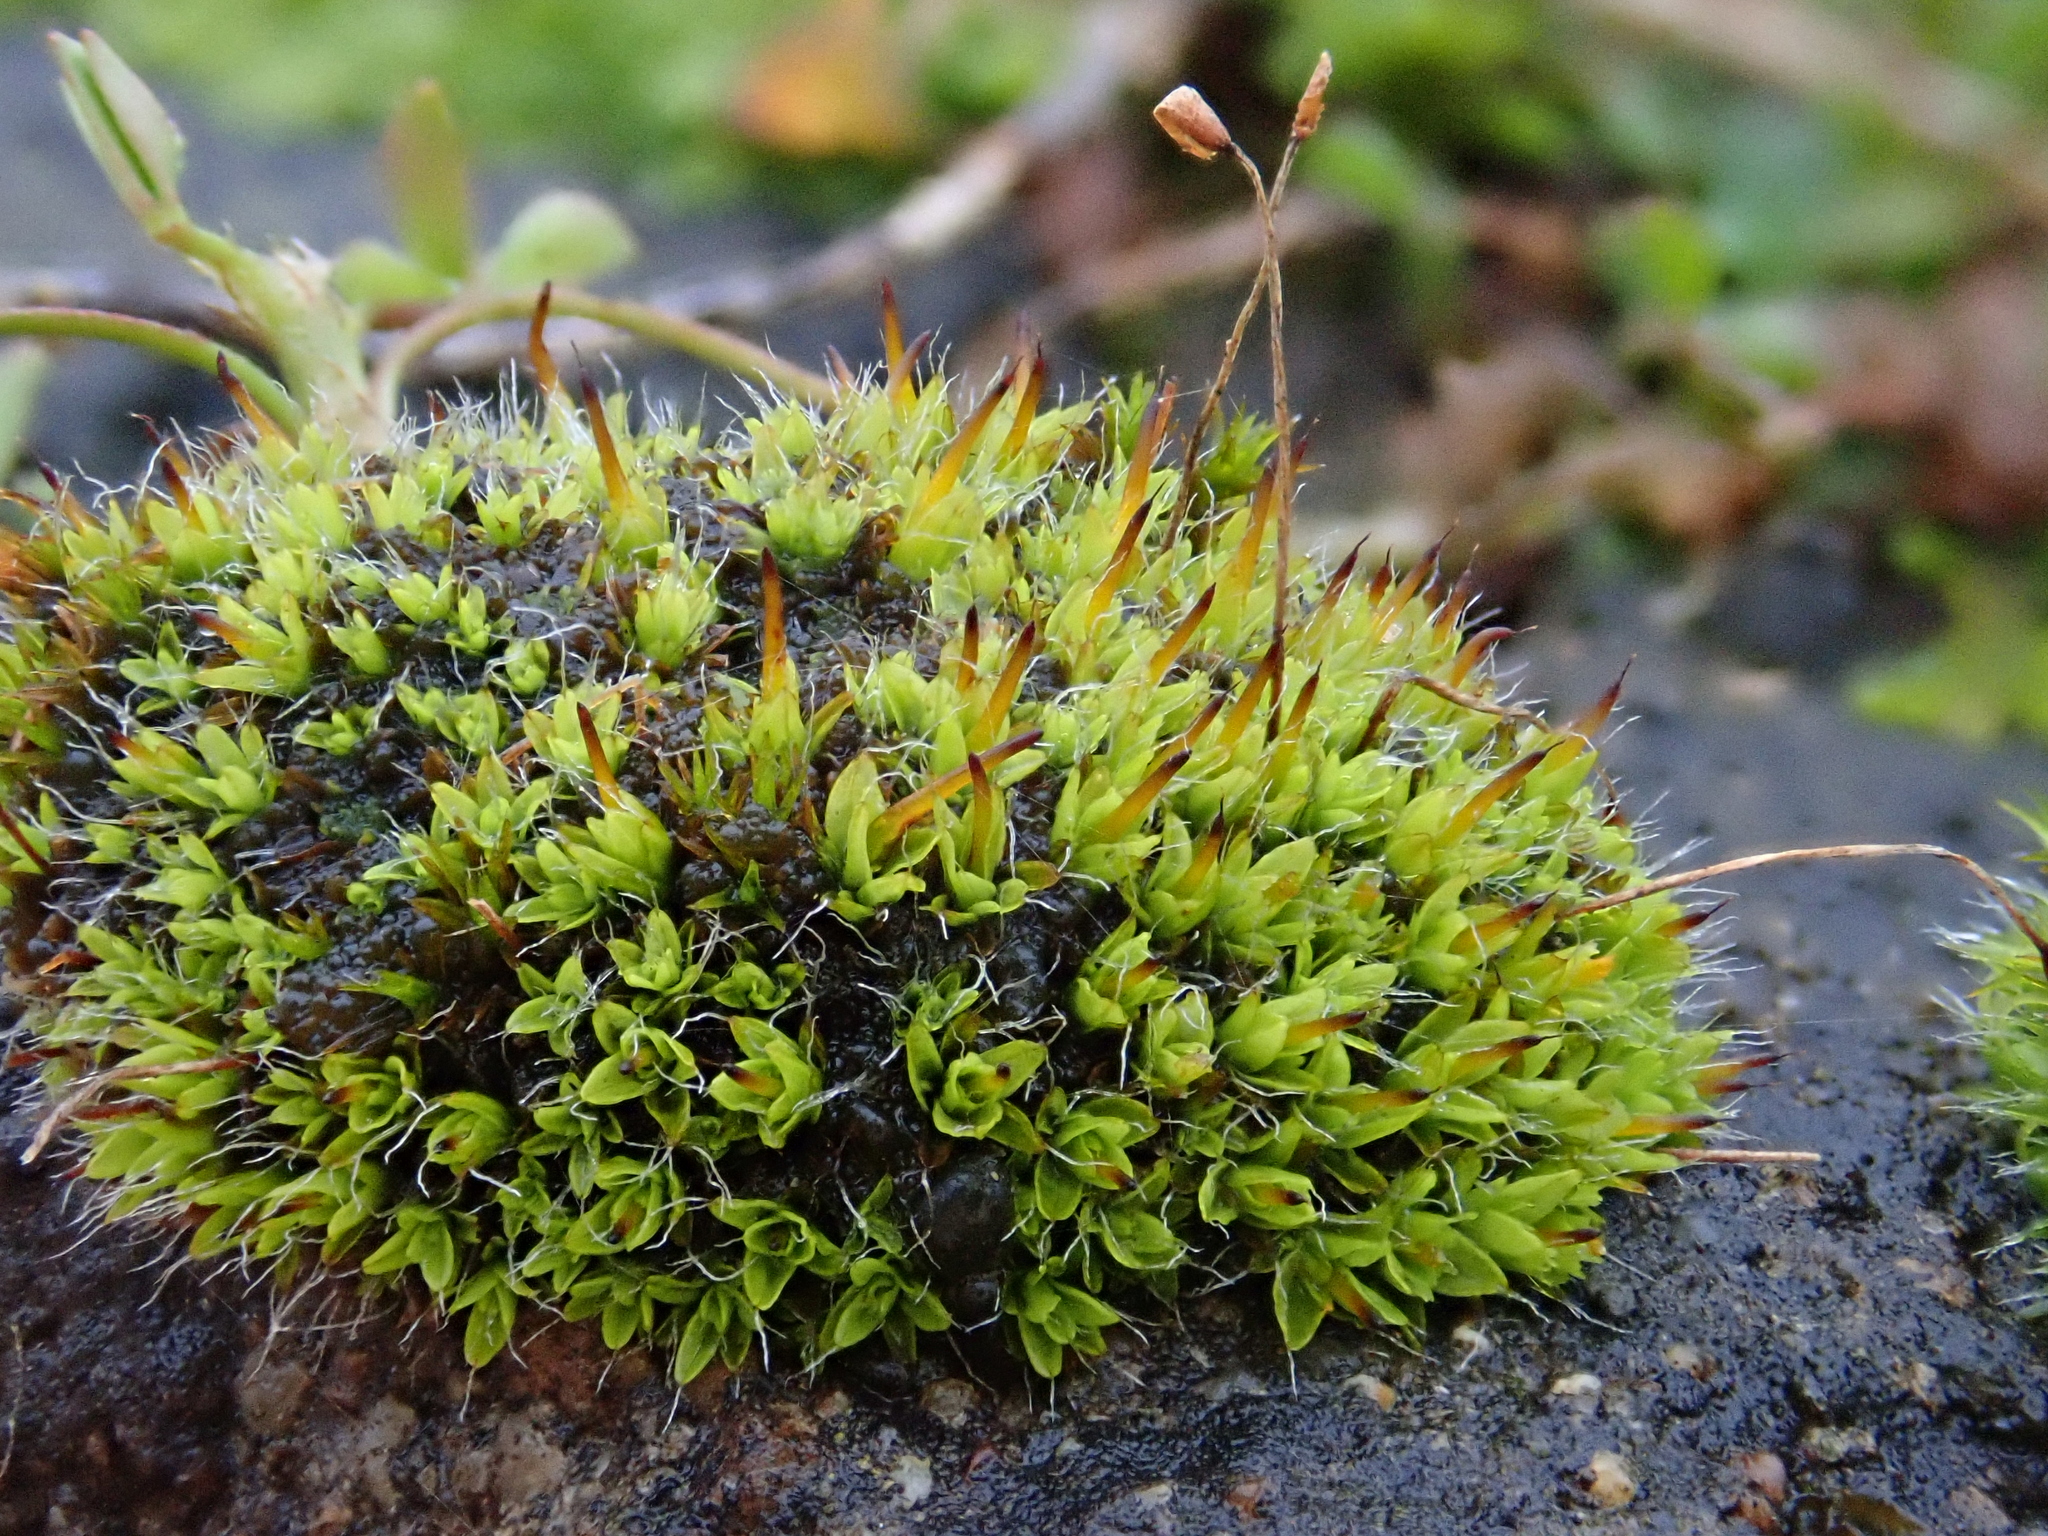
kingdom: Plantae
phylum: Bryophyta
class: Bryopsida
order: Pottiales
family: Pottiaceae
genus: Tortula
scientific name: Tortula muralis
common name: Wall screw-moss
